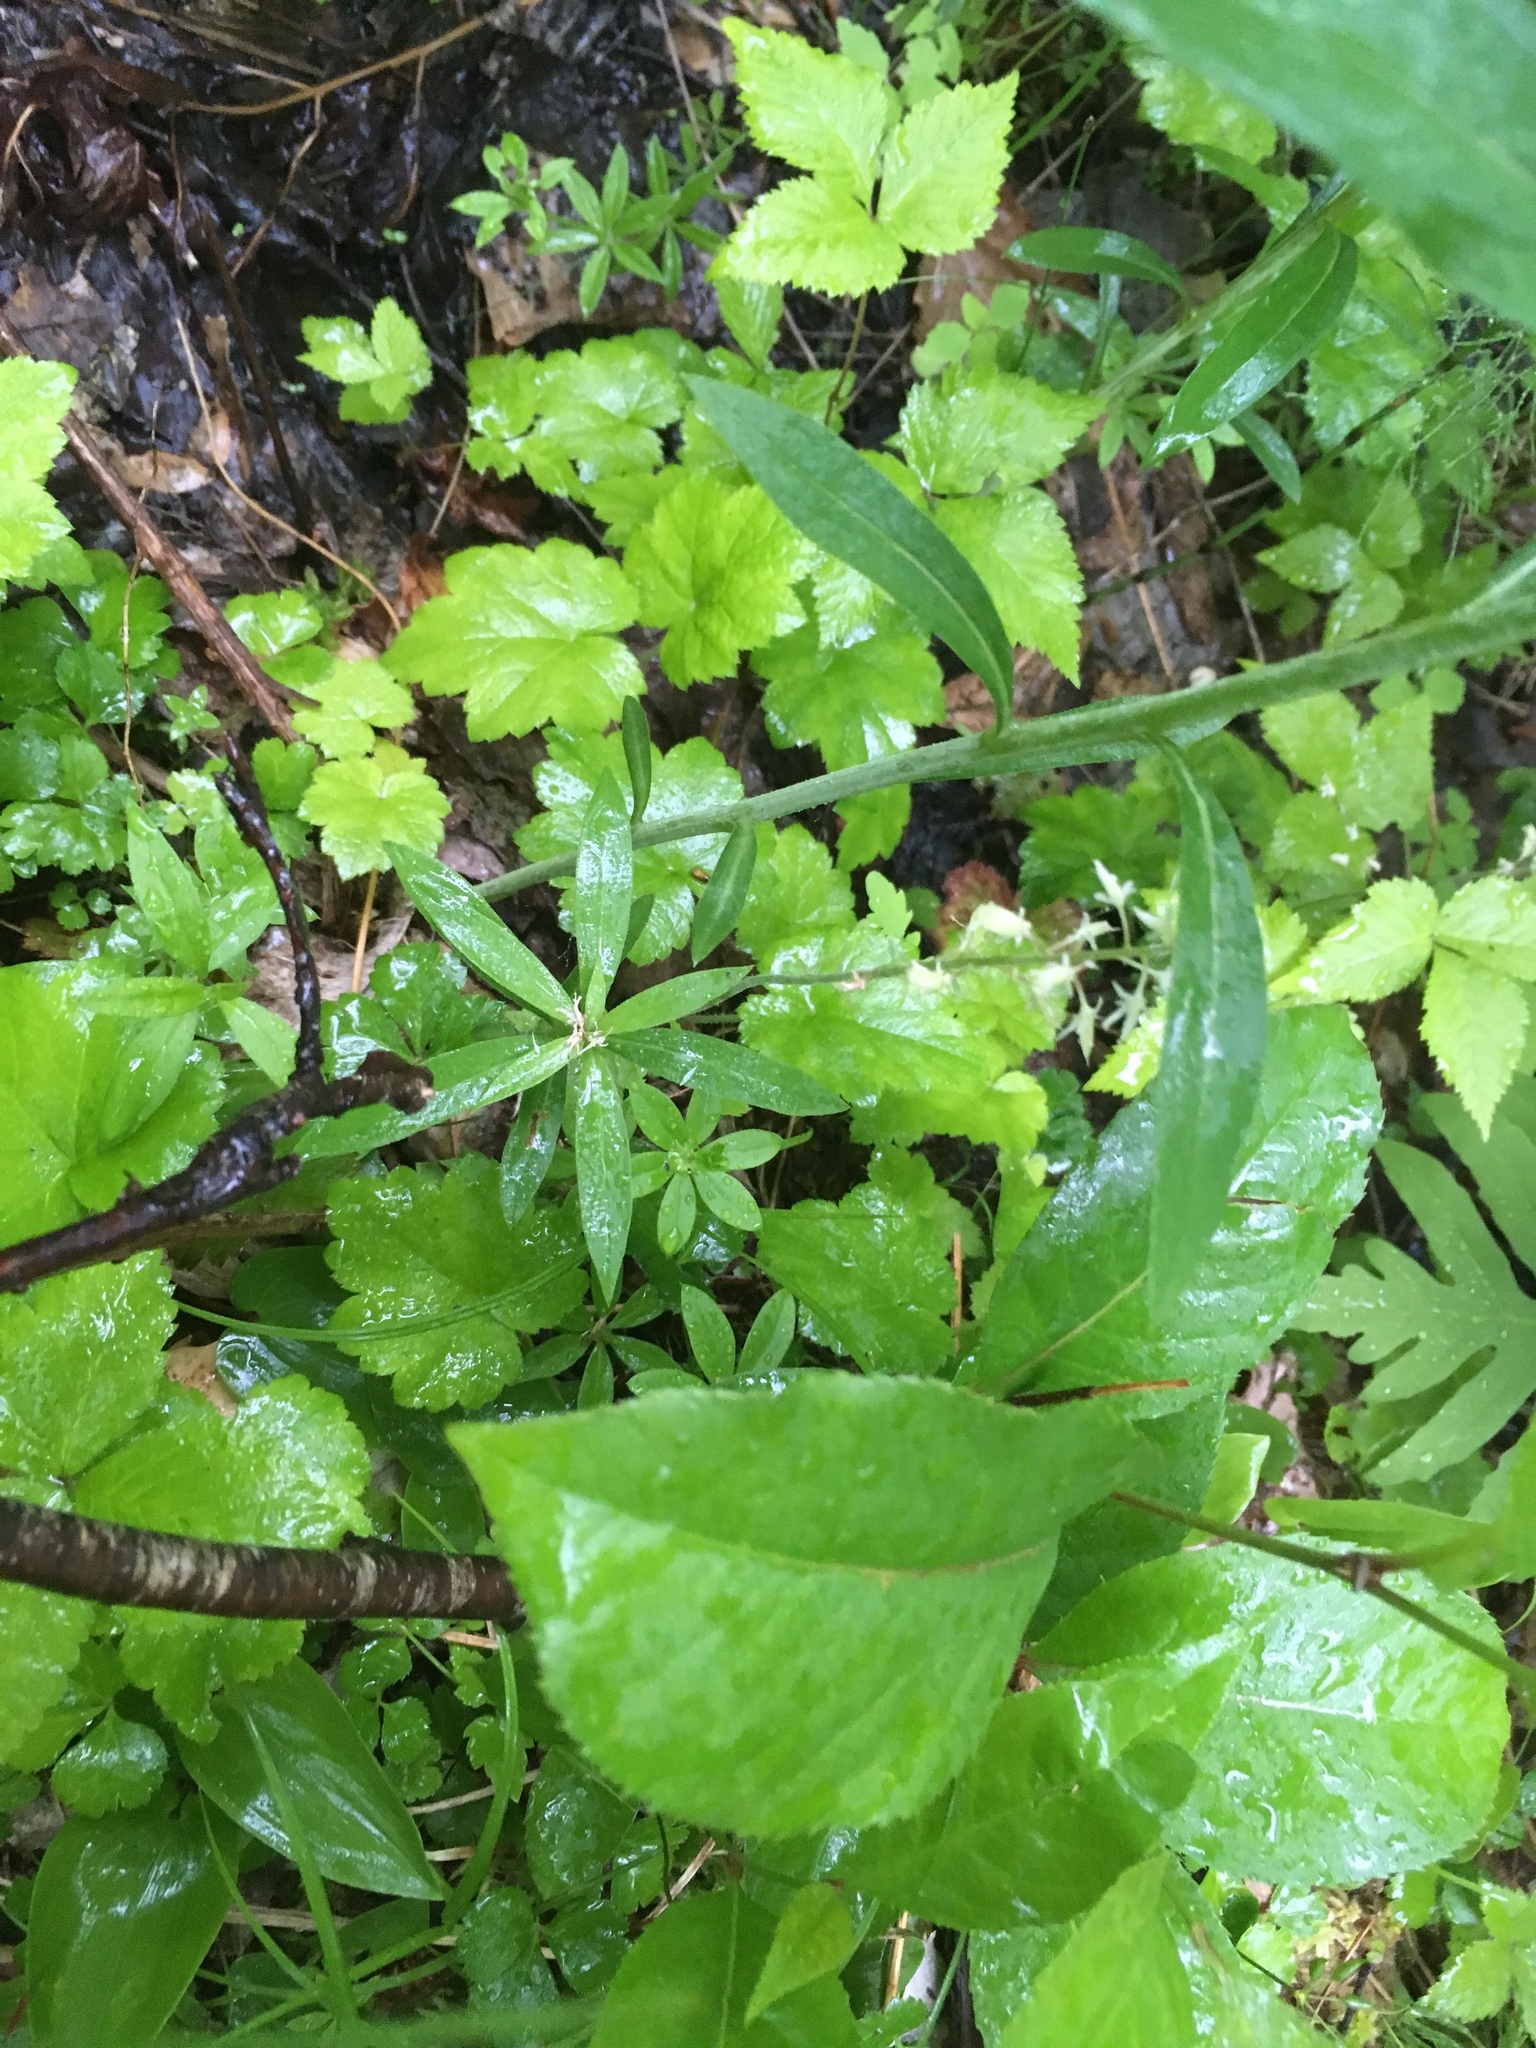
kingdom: Plantae
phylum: Tracheophyta
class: Magnoliopsida
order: Saxifragales
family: Saxifragaceae
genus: Tiarella
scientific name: Tiarella stolonifera
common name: Stoloniferous foamflower
